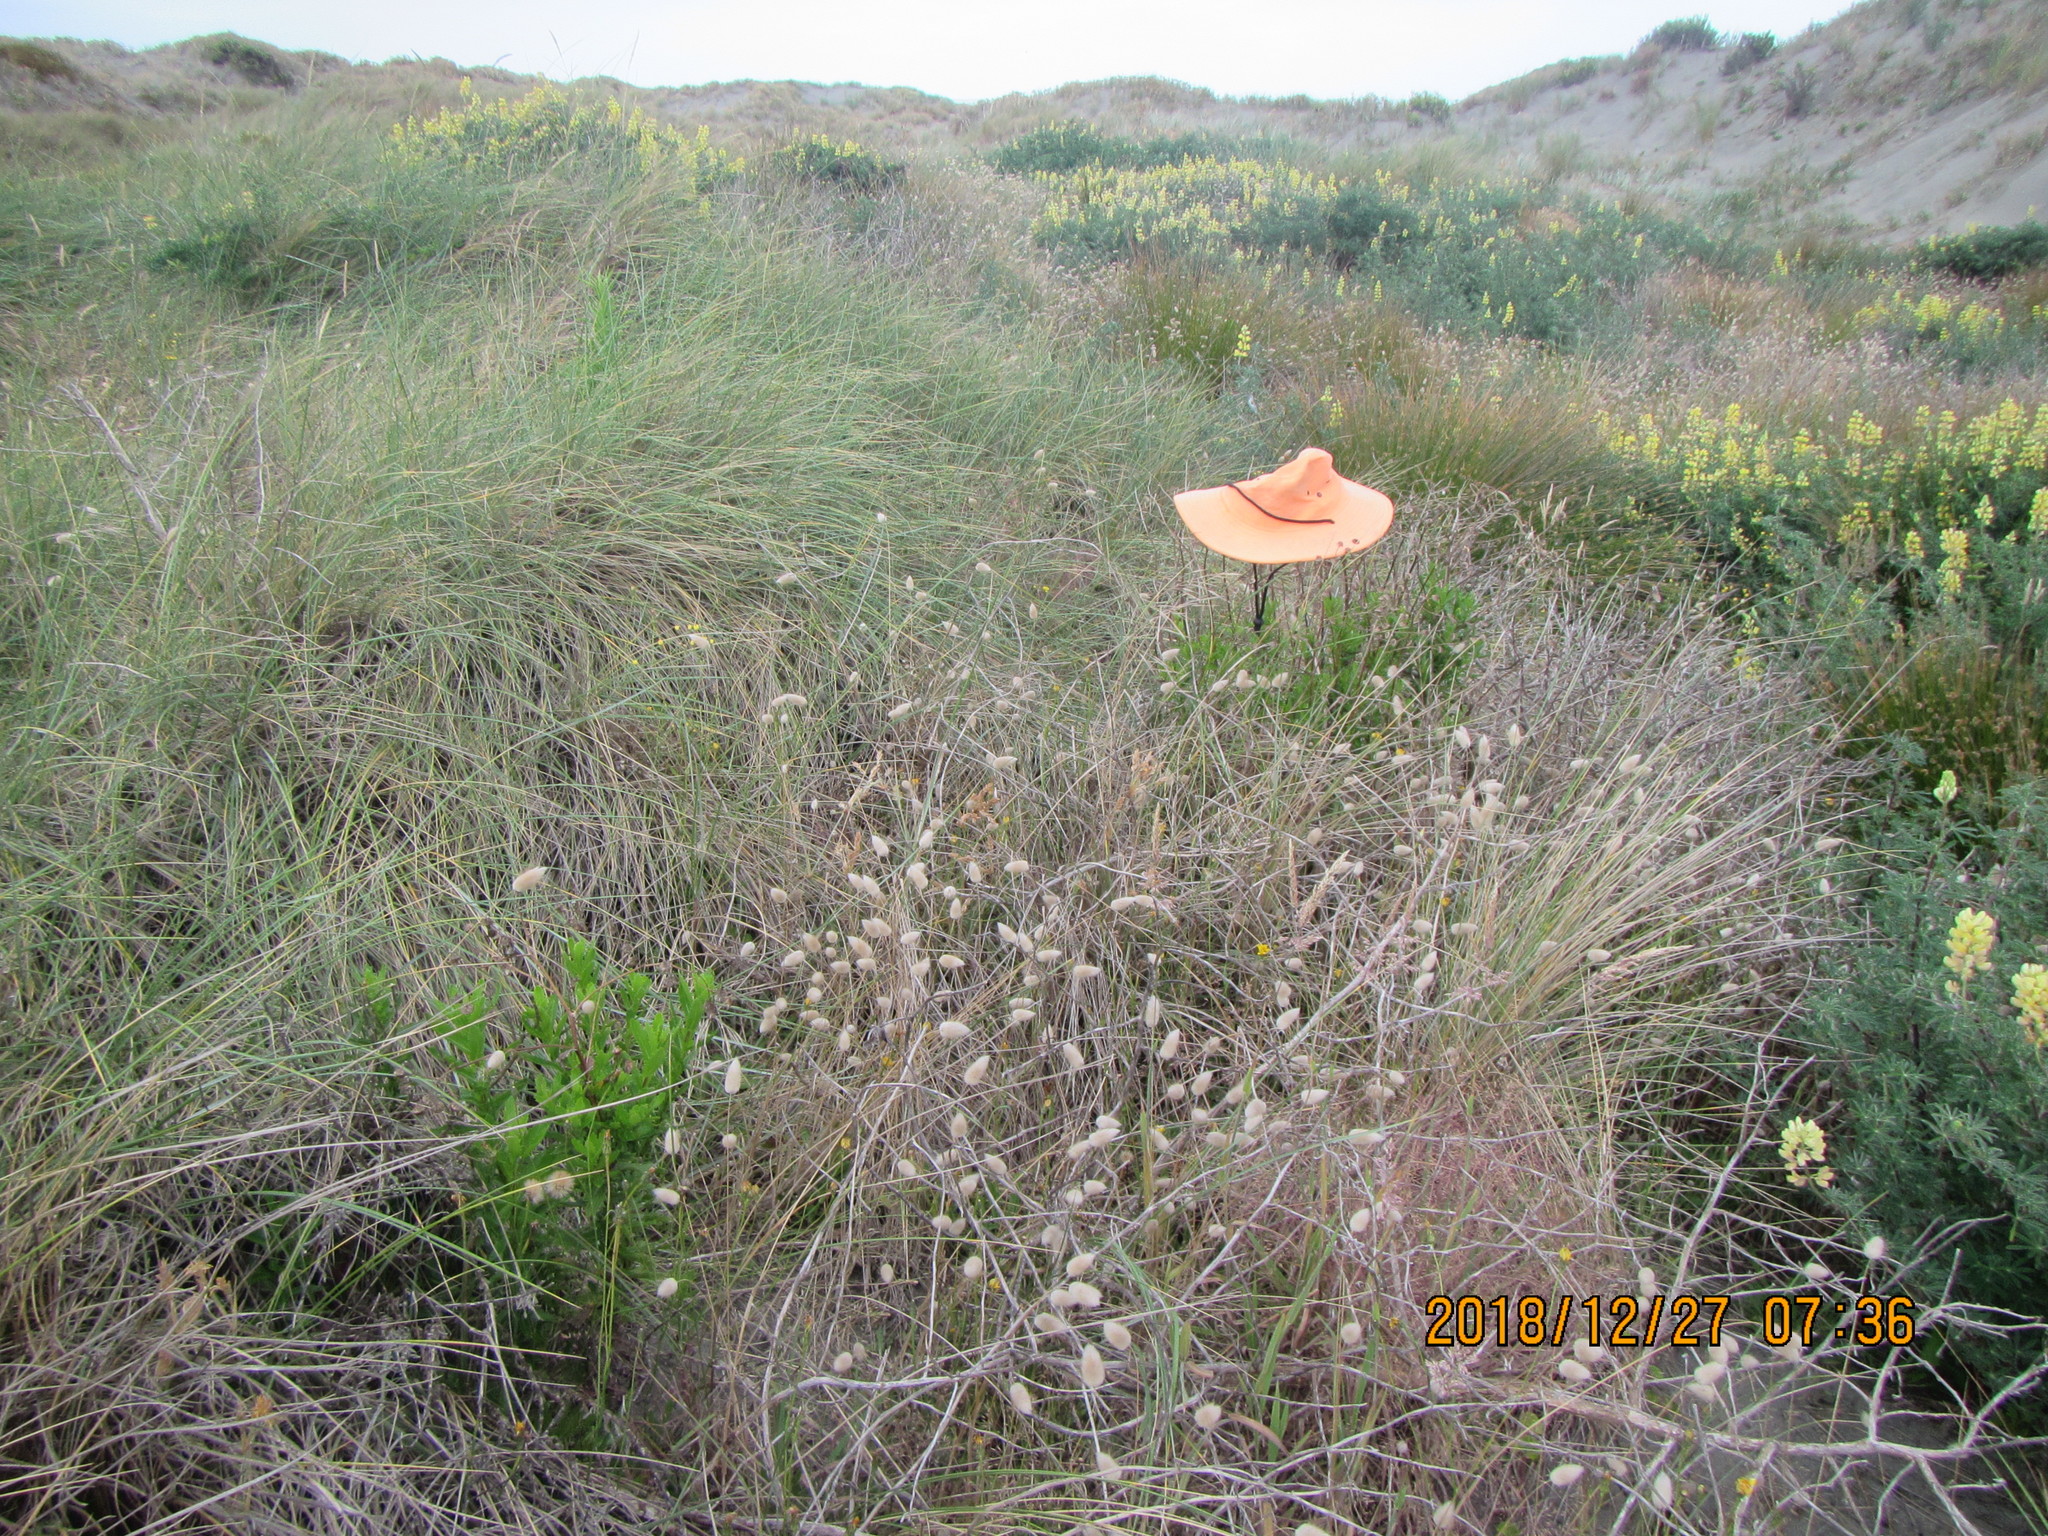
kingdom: Plantae
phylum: Tracheophyta
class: Magnoliopsida
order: Asterales
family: Asteraceae
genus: Senecio
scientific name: Senecio glastifolius
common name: Woad-leaved ragwort
